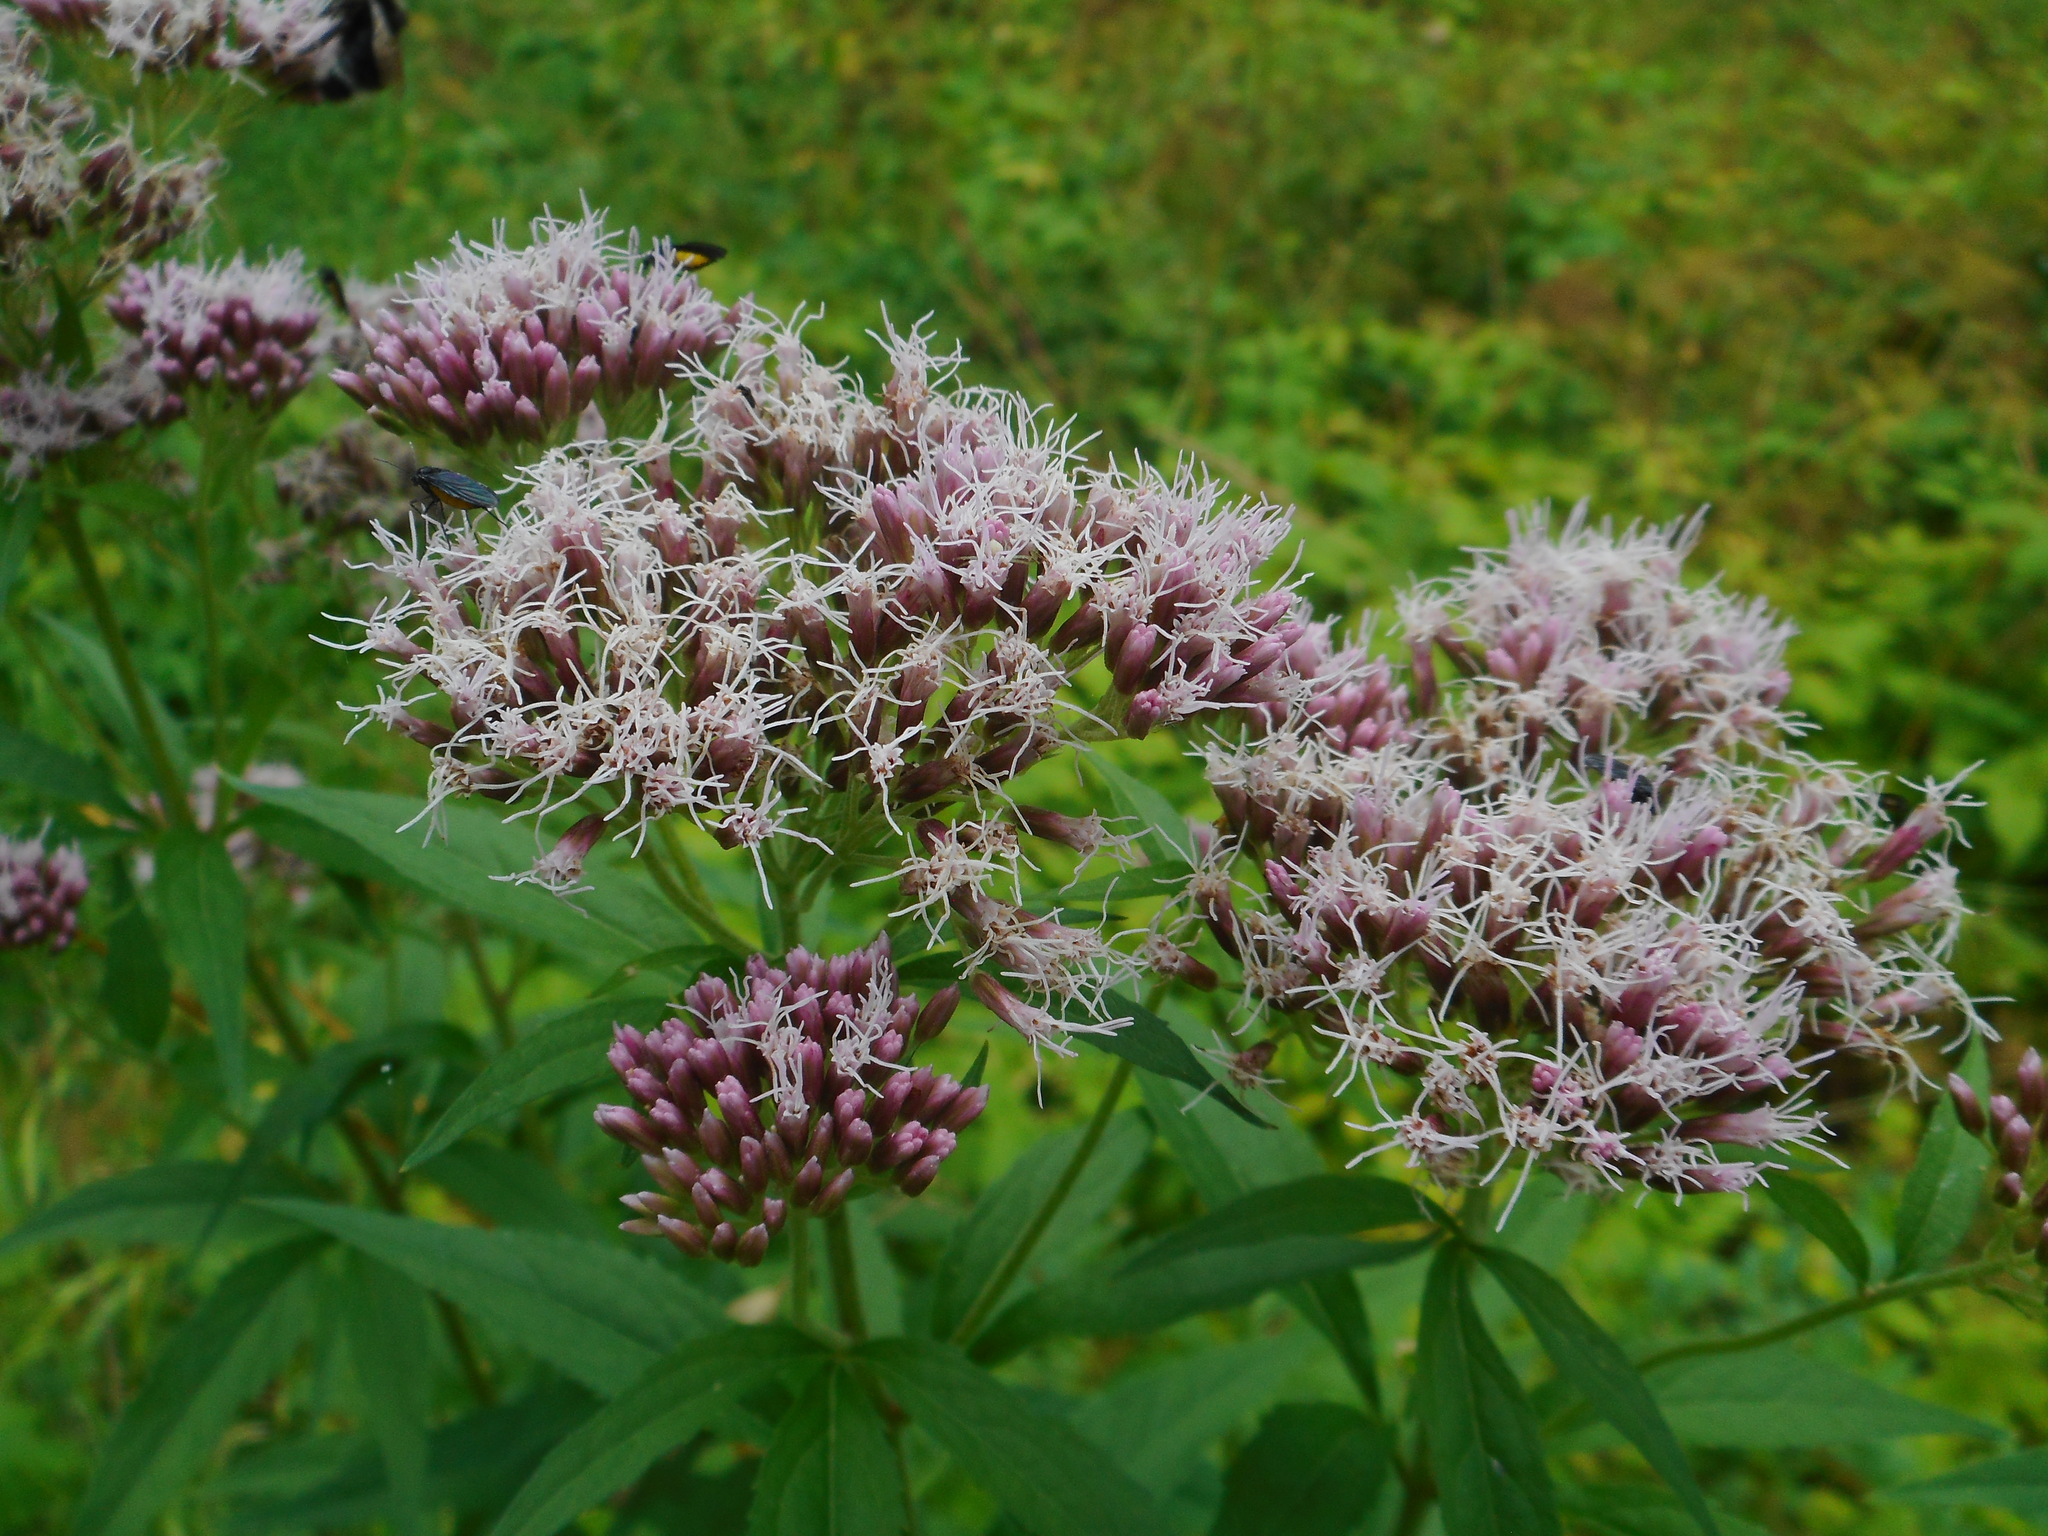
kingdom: Plantae
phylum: Tracheophyta
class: Magnoliopsida
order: Asterales
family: Asteraceae
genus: Eupatorium
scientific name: Eupatorium cannabinum
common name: Hemp-agrimony
